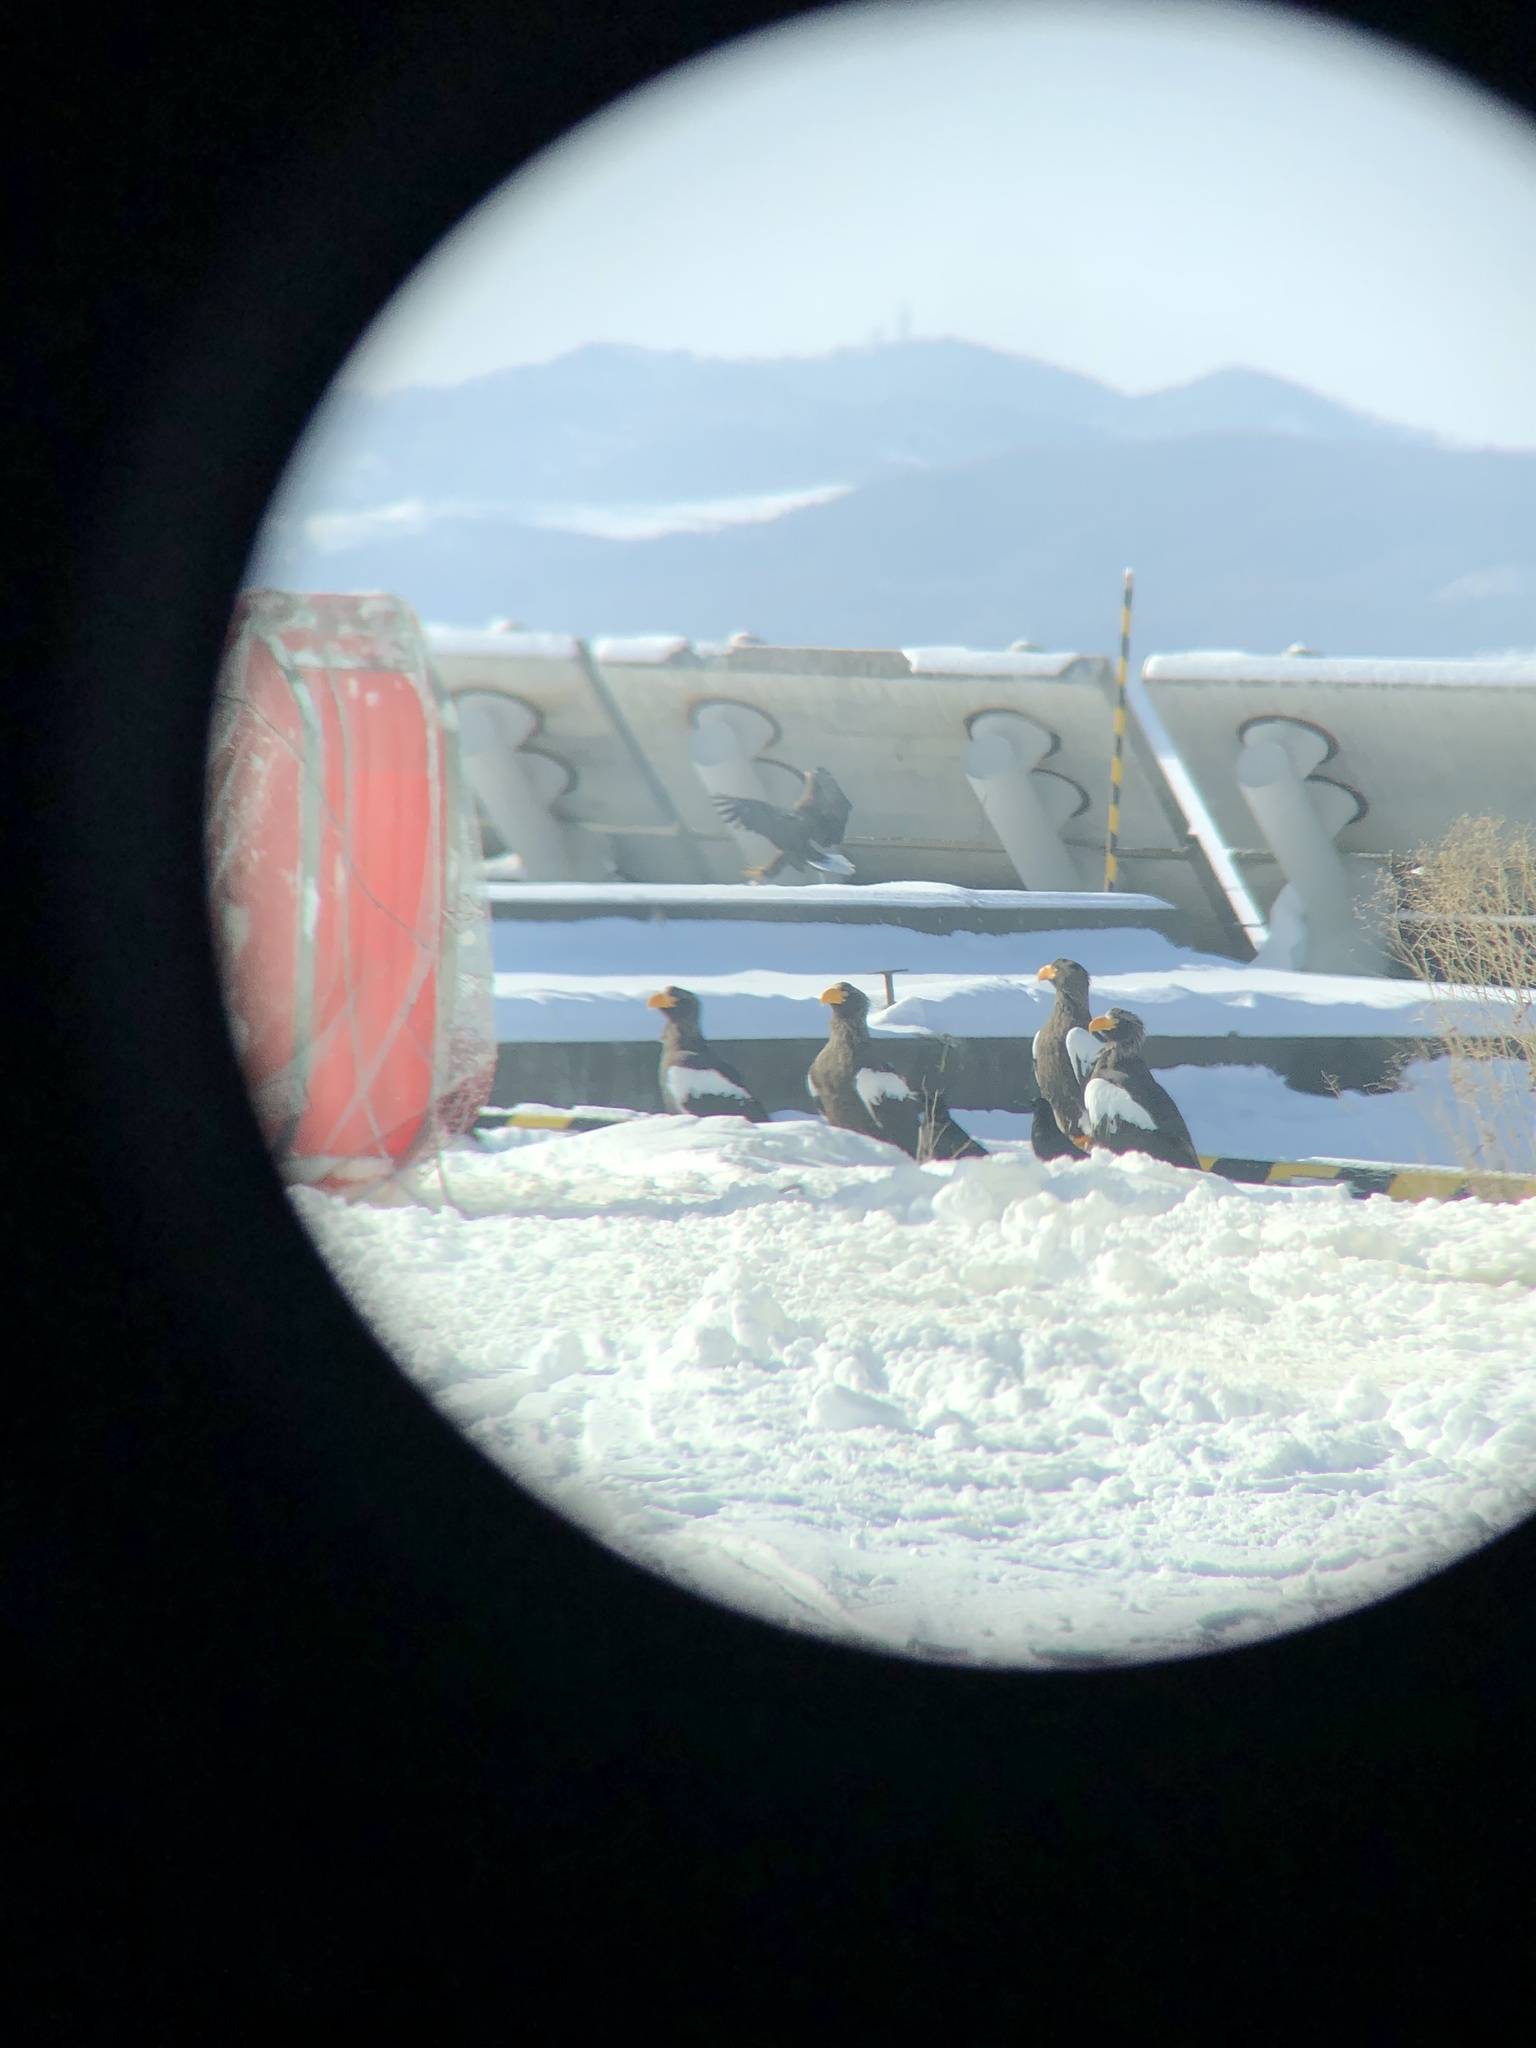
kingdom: Animalia
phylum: Chordata
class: Aves
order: Accipitriformes
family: Accipitridae
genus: Haliaeetus
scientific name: Haliaeetus pelagicus
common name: Steller's sea eagle
